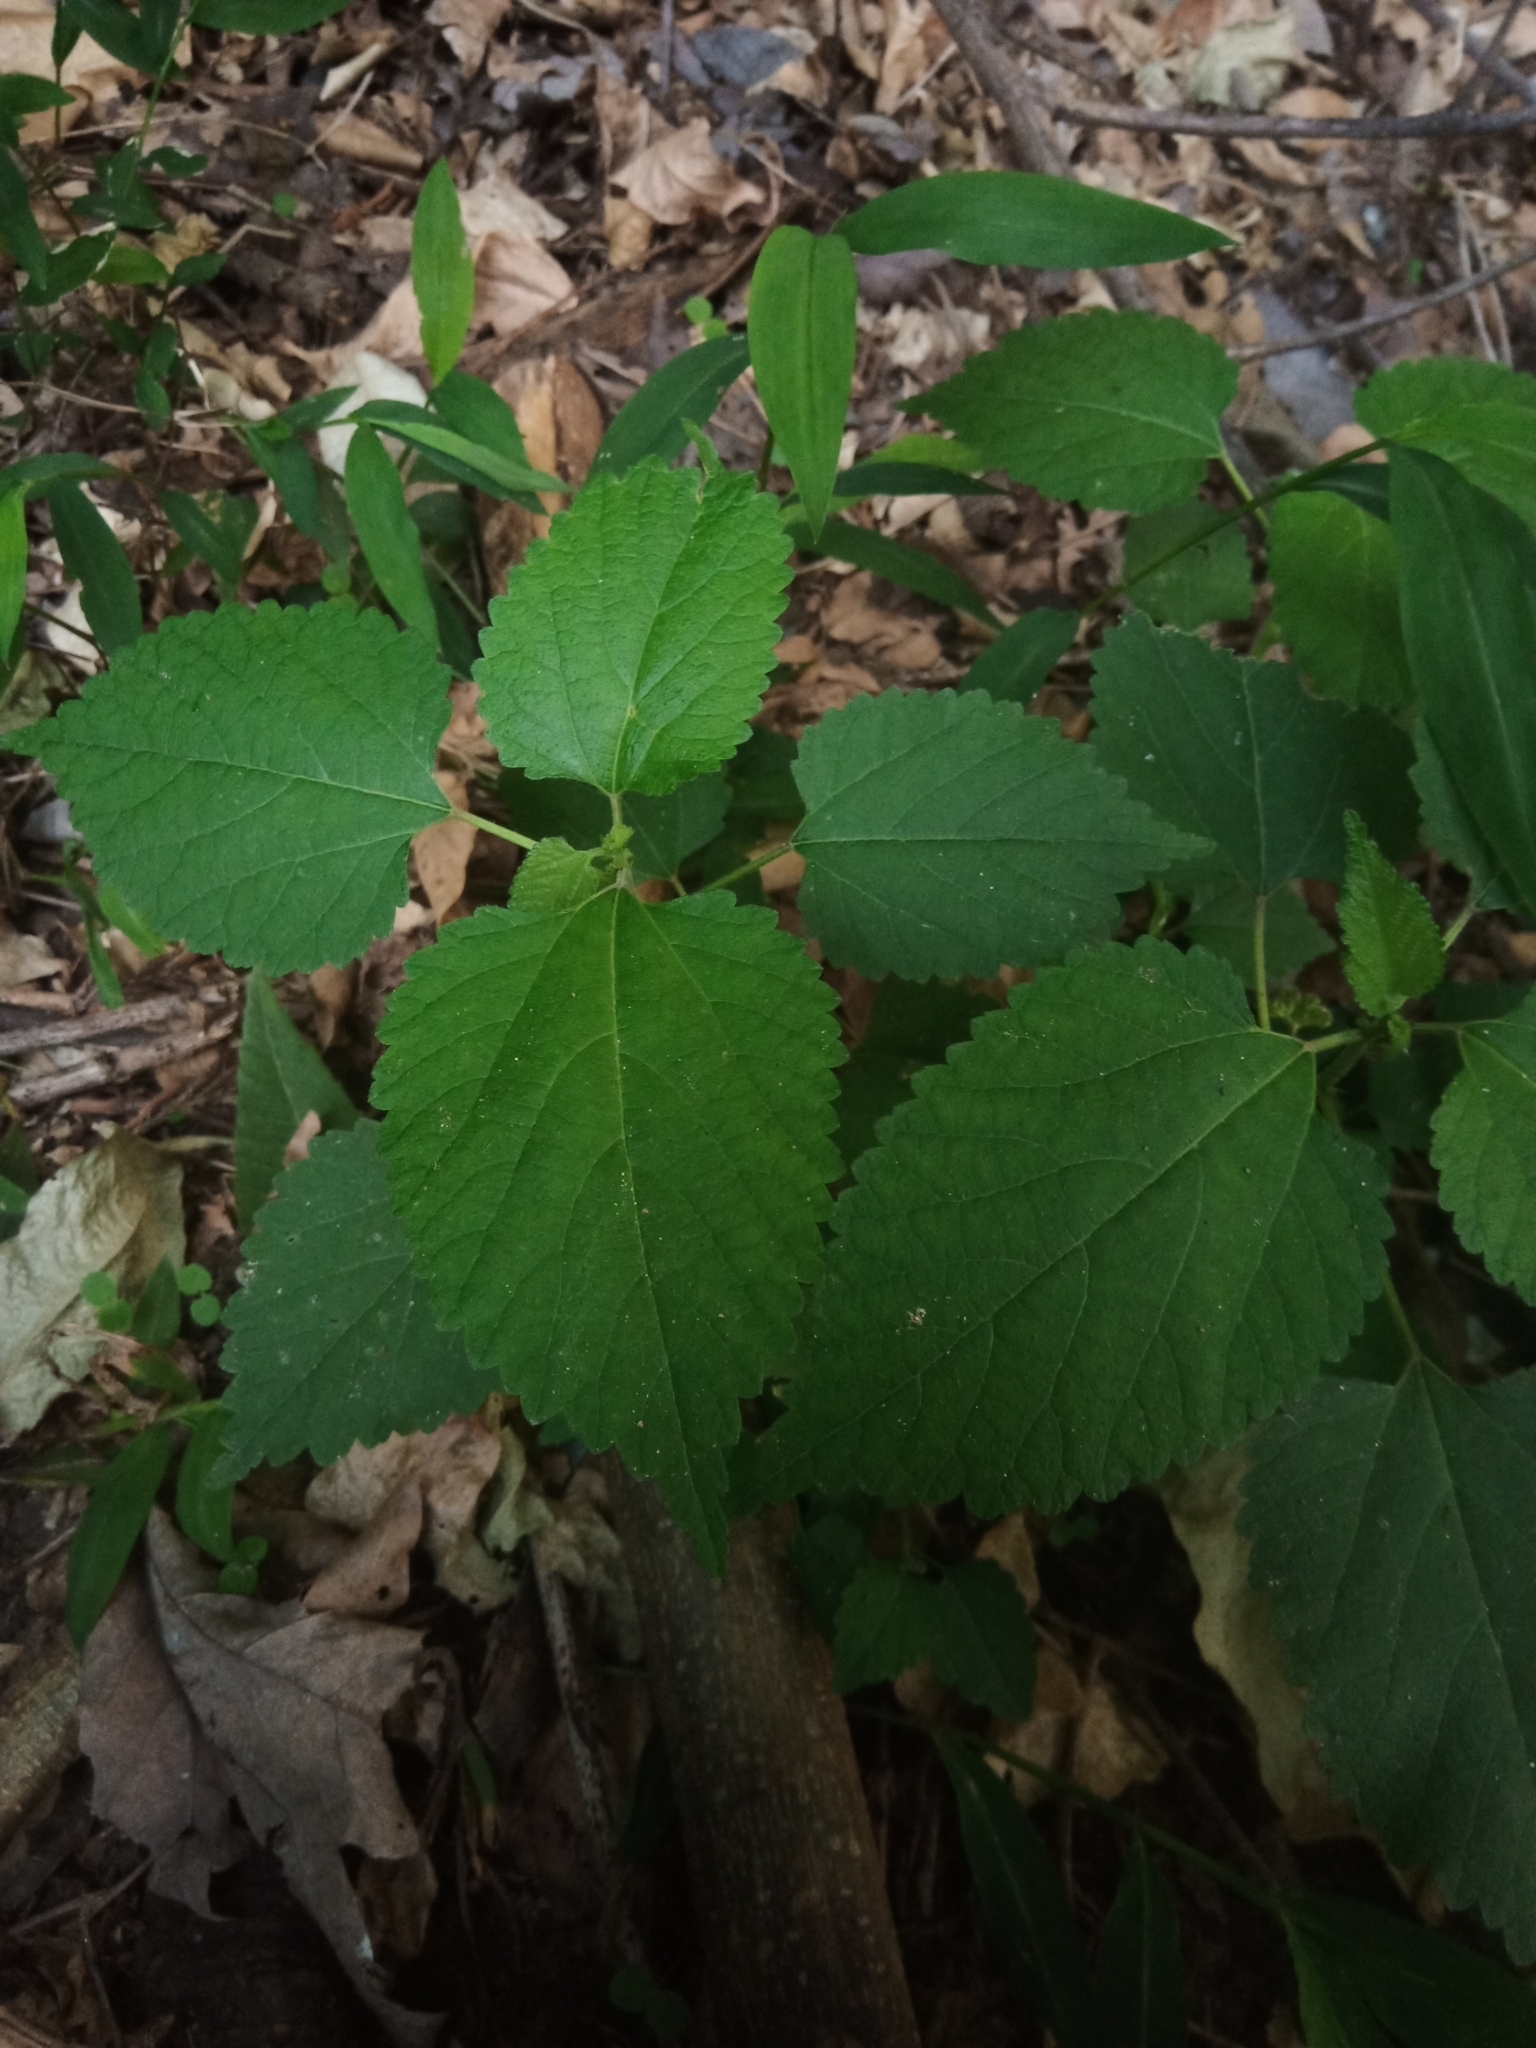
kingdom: Plantae
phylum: Tracheophyta
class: Magnoliopsida
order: Rosales
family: Moraceae
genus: Fatoua
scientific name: Fatoua villosa
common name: Hairy crabweed
